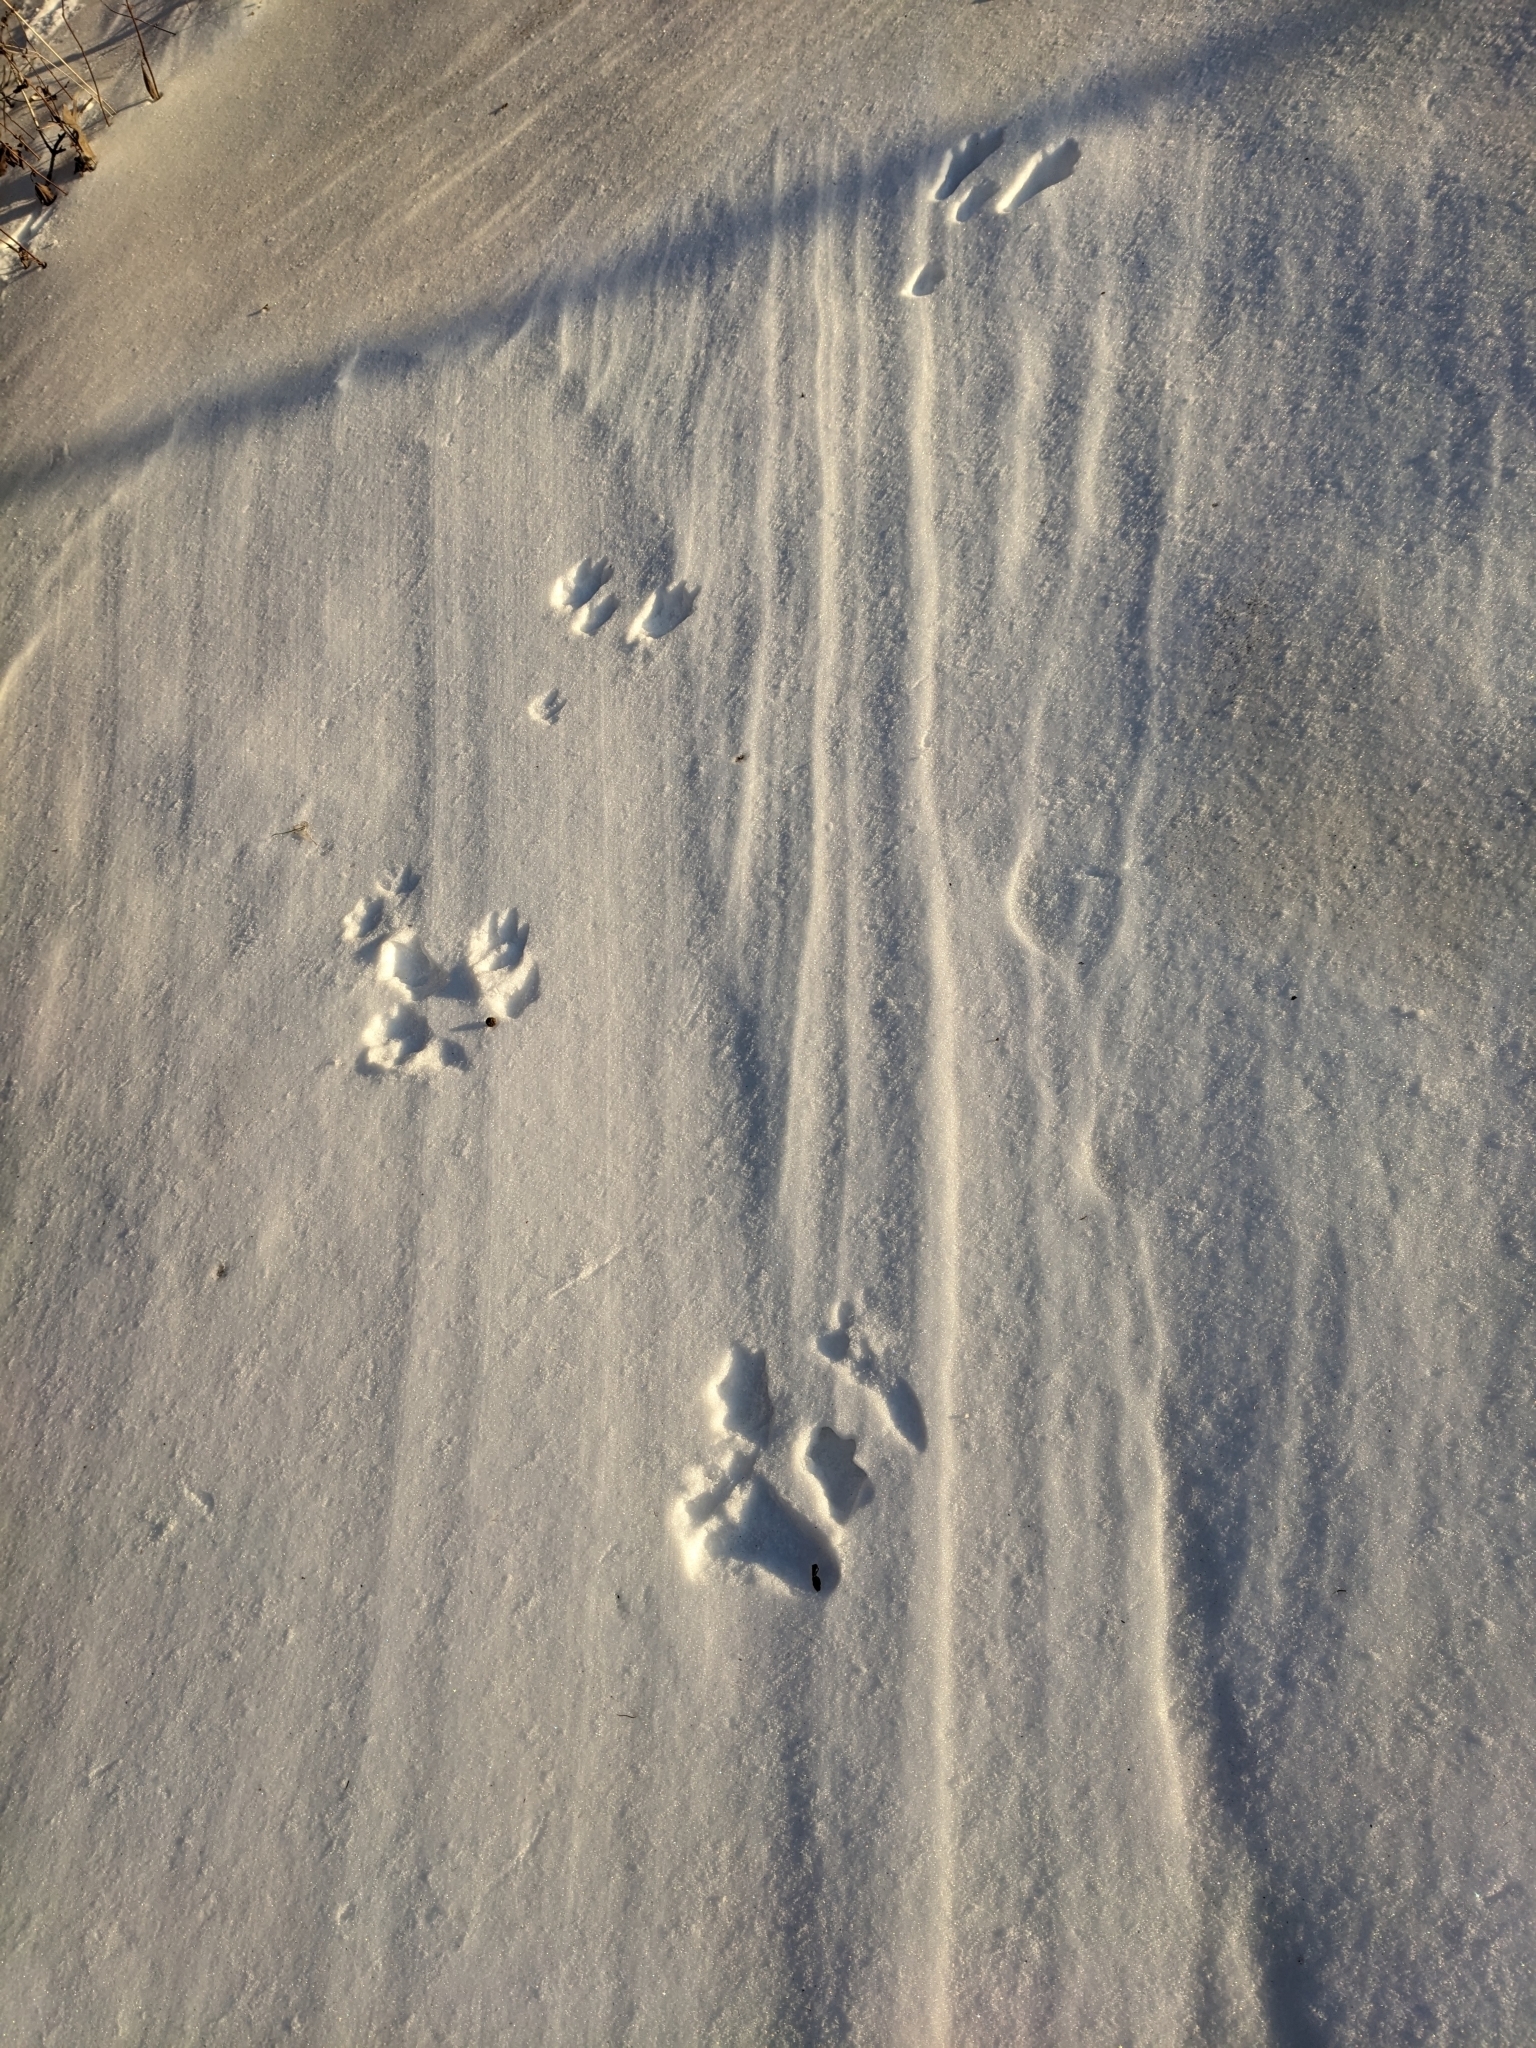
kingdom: Animalia
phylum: Chordata
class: Mammalia
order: Lagomorpha
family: Leporidae
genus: Sylvilagus
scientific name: Sylvilagus floridanus
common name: Eastern cottontail
